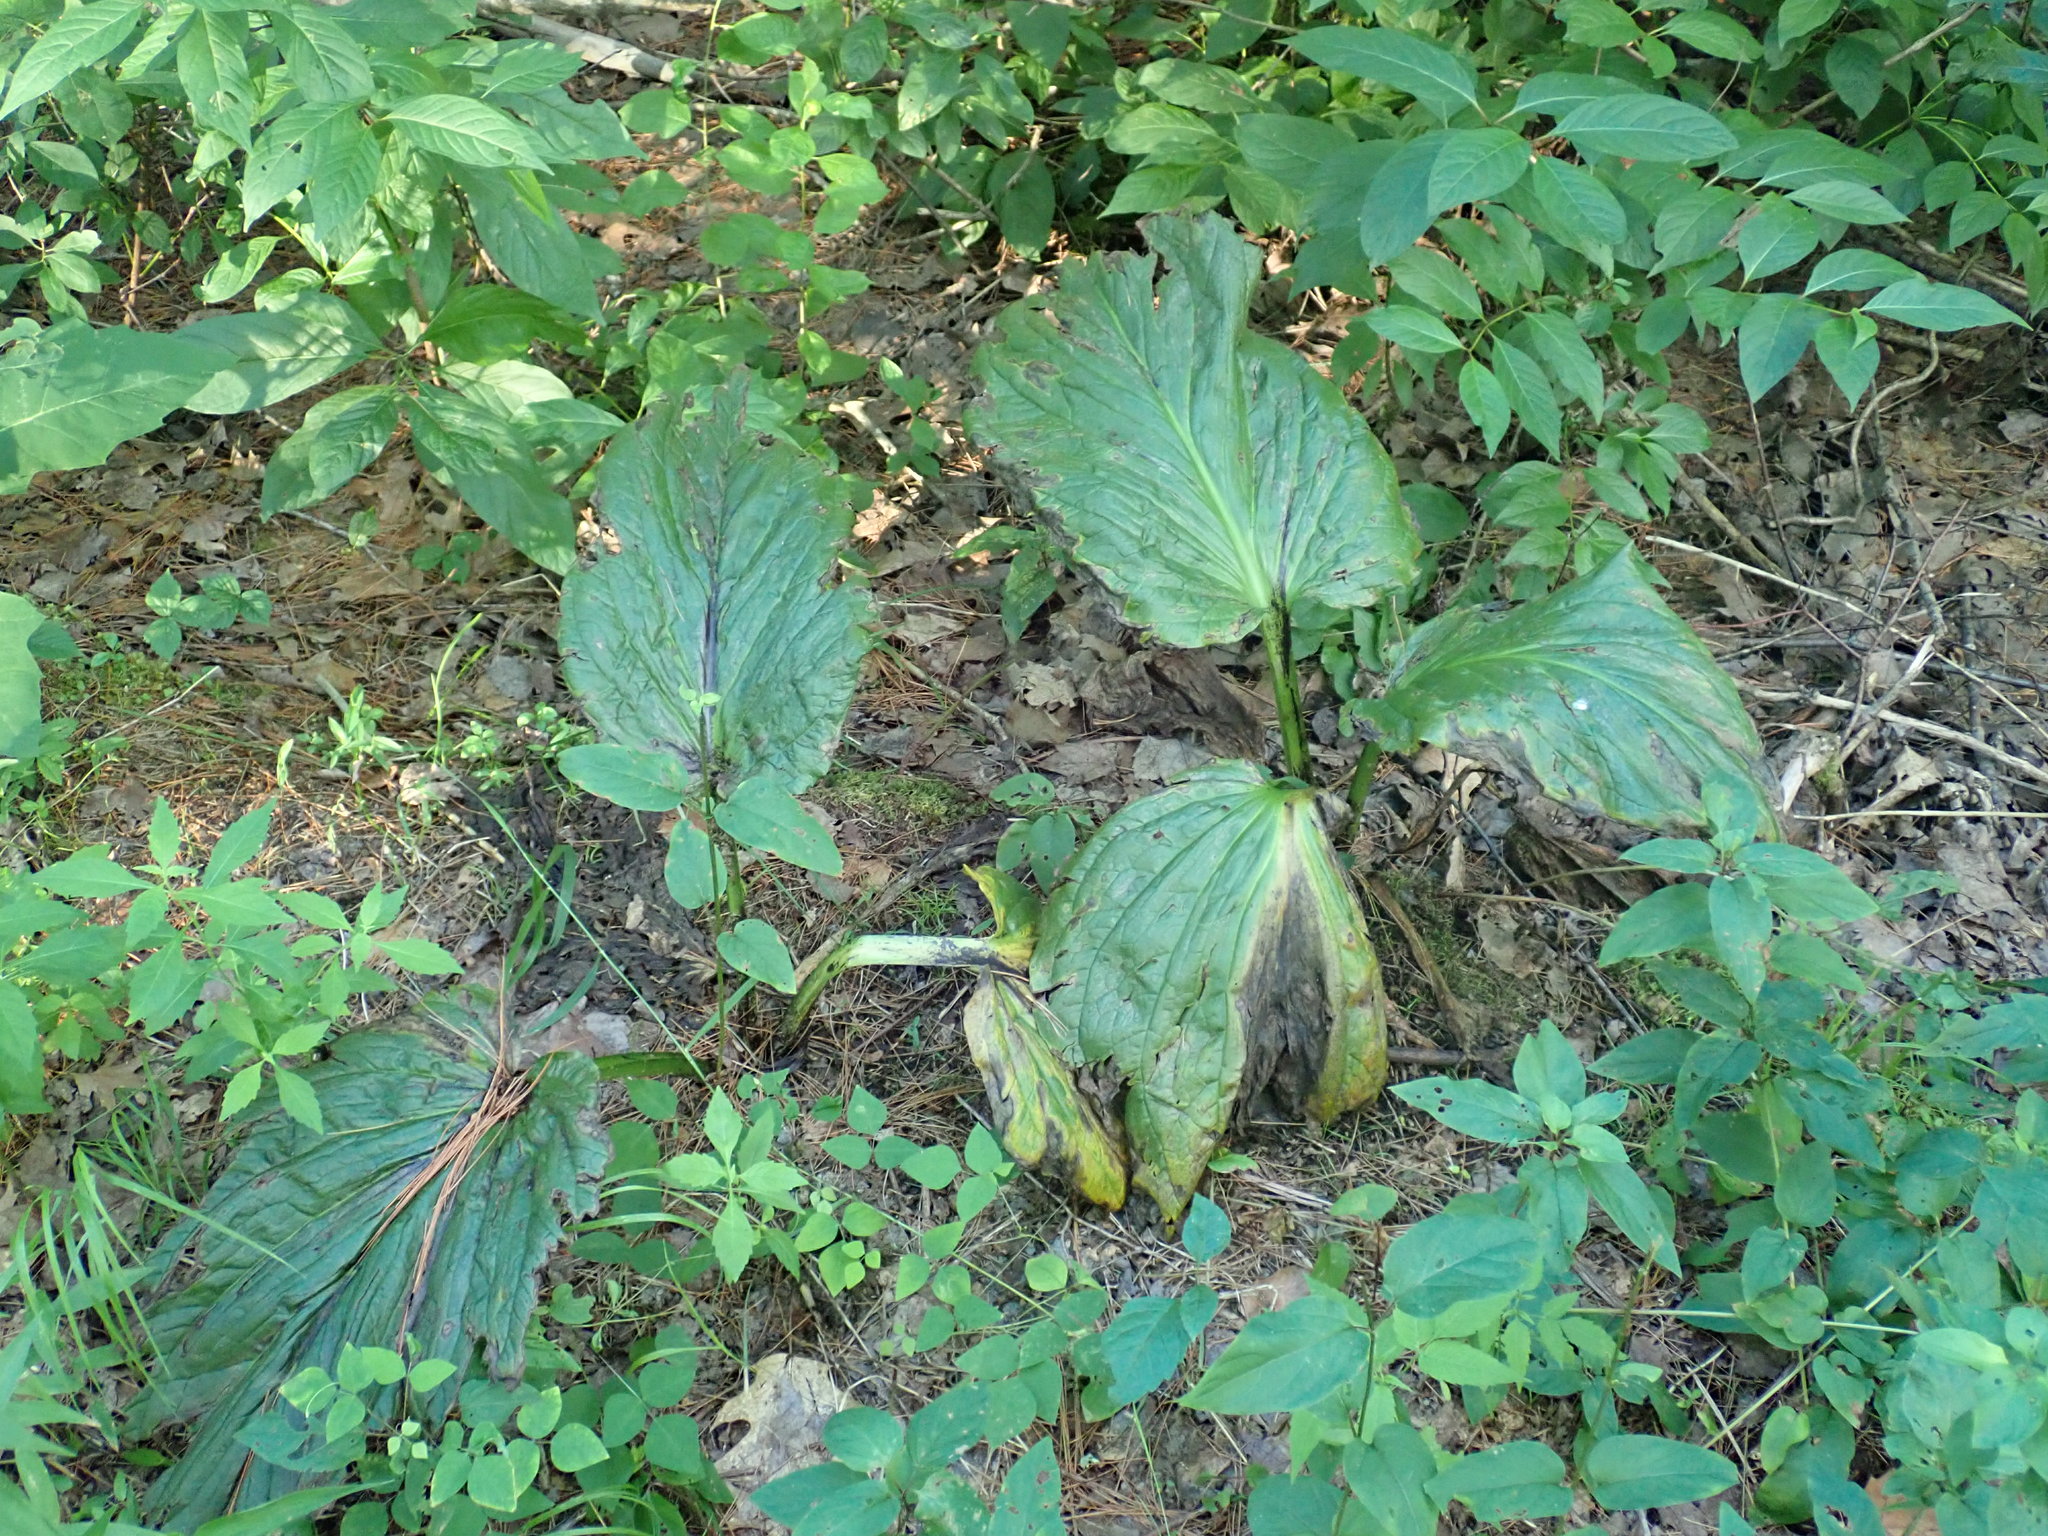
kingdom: Plantae
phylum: Tracheophyta
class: Liliopsida
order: Alismatales
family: Araceae
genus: Symplocarpus
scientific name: Symplocarpus foetidus
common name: Eastern skunk cabbage
